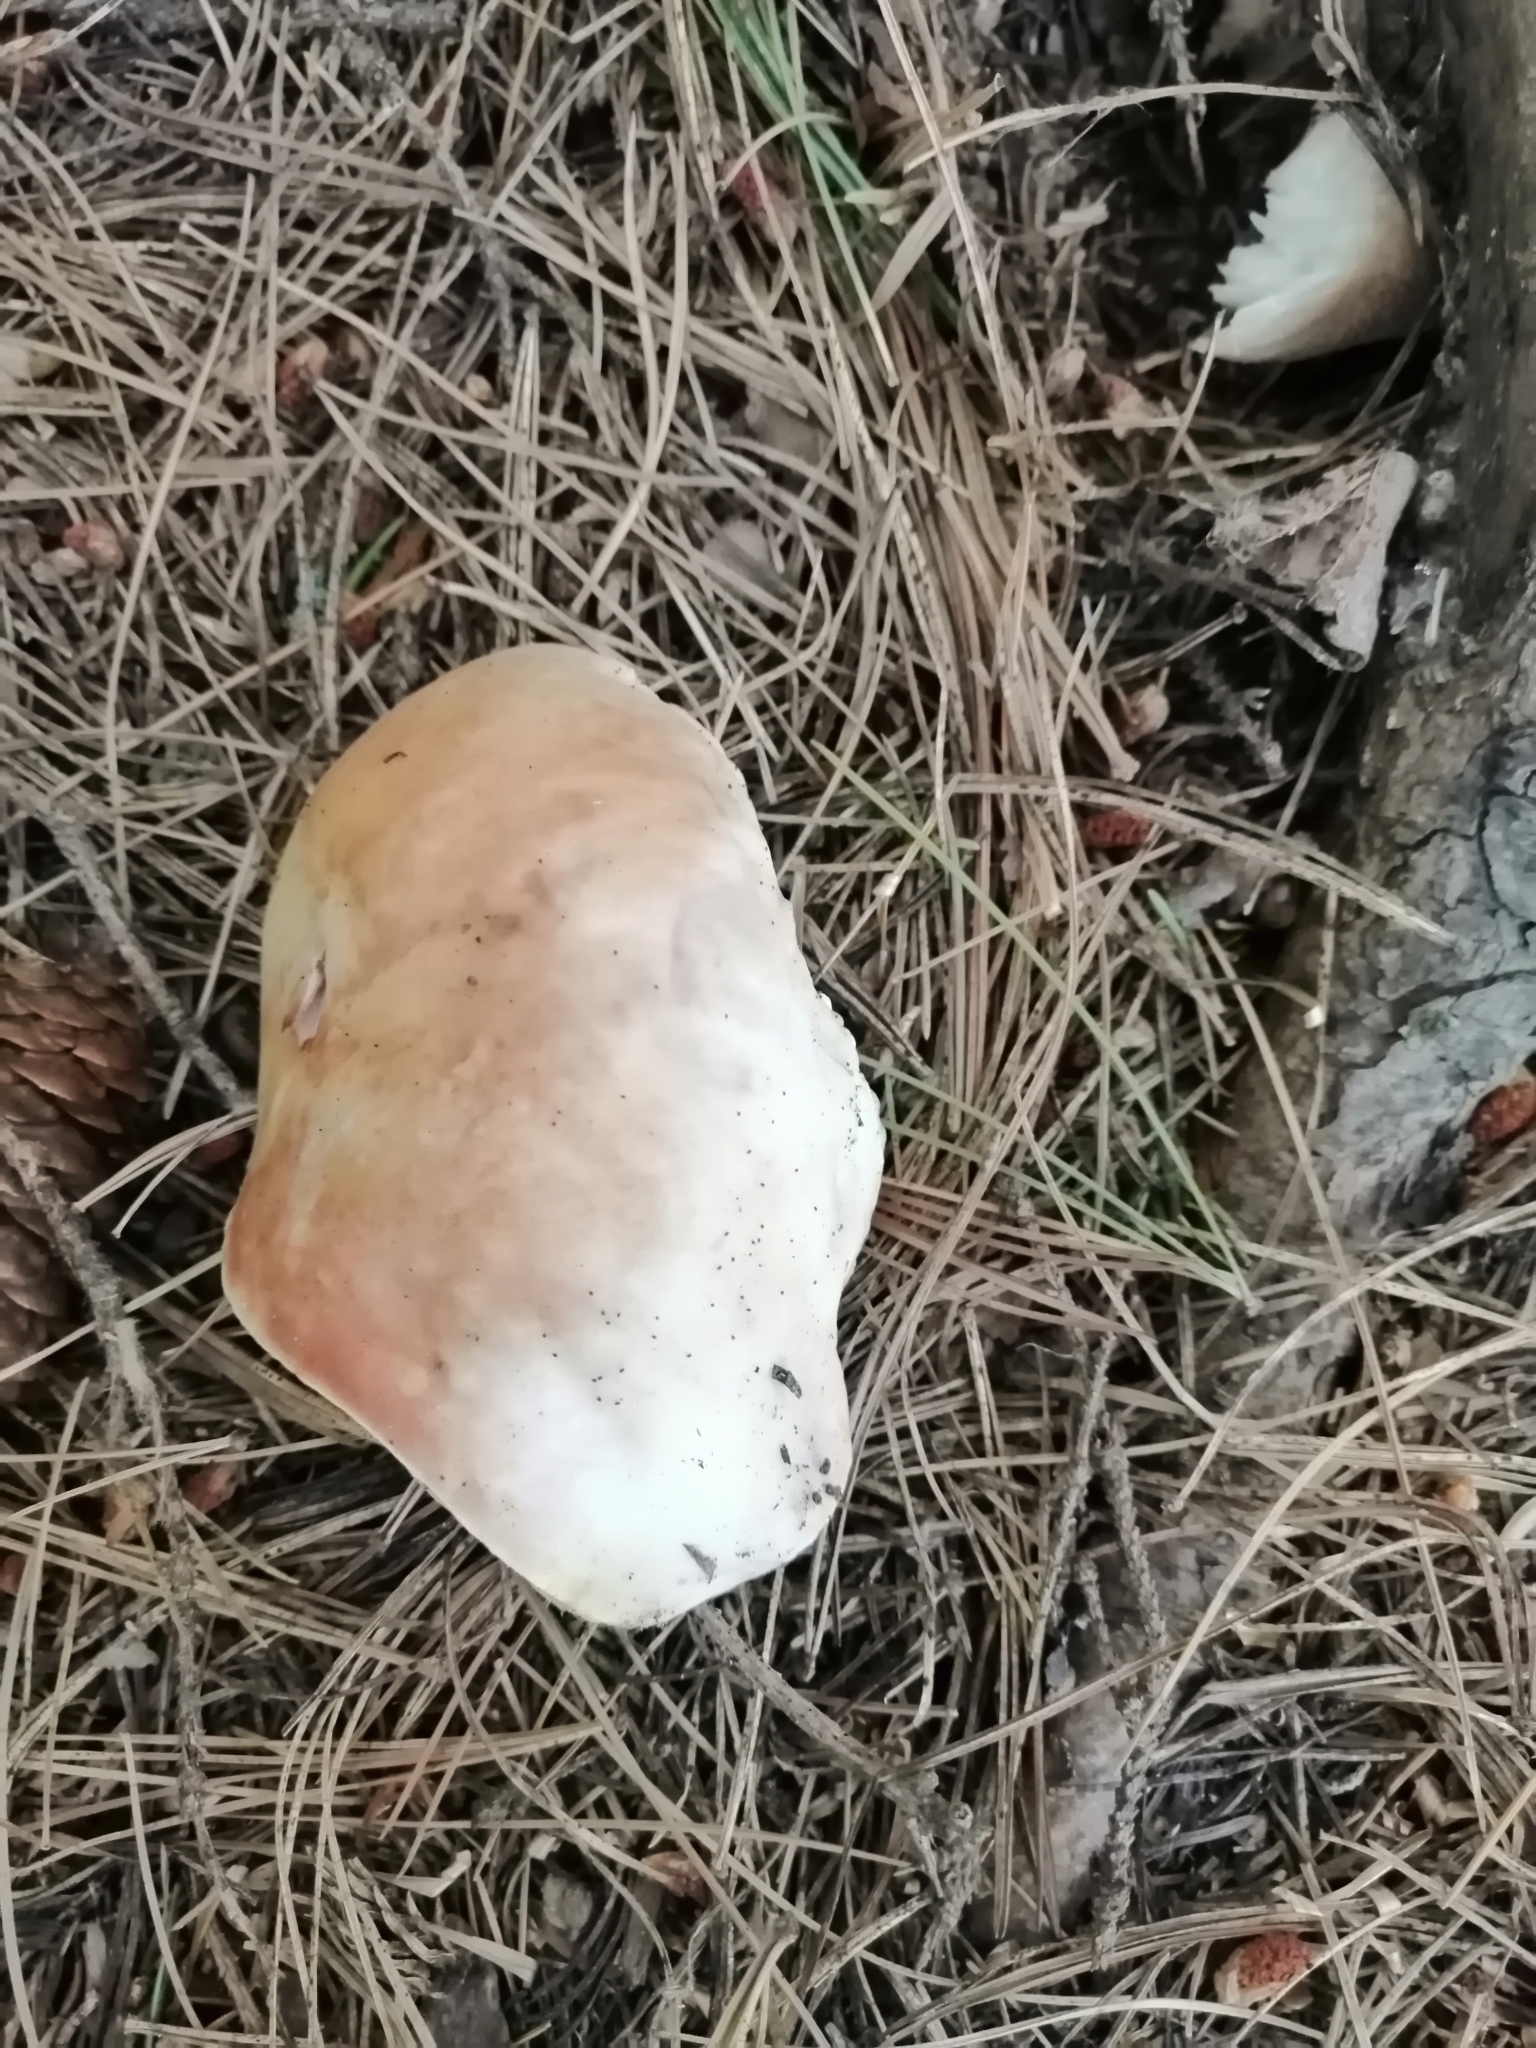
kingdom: Fungi
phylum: Basidiomycota
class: Agaricomycetes
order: Boletales
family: Boletaceae
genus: Boletus
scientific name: Boletus edulis
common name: Cep
